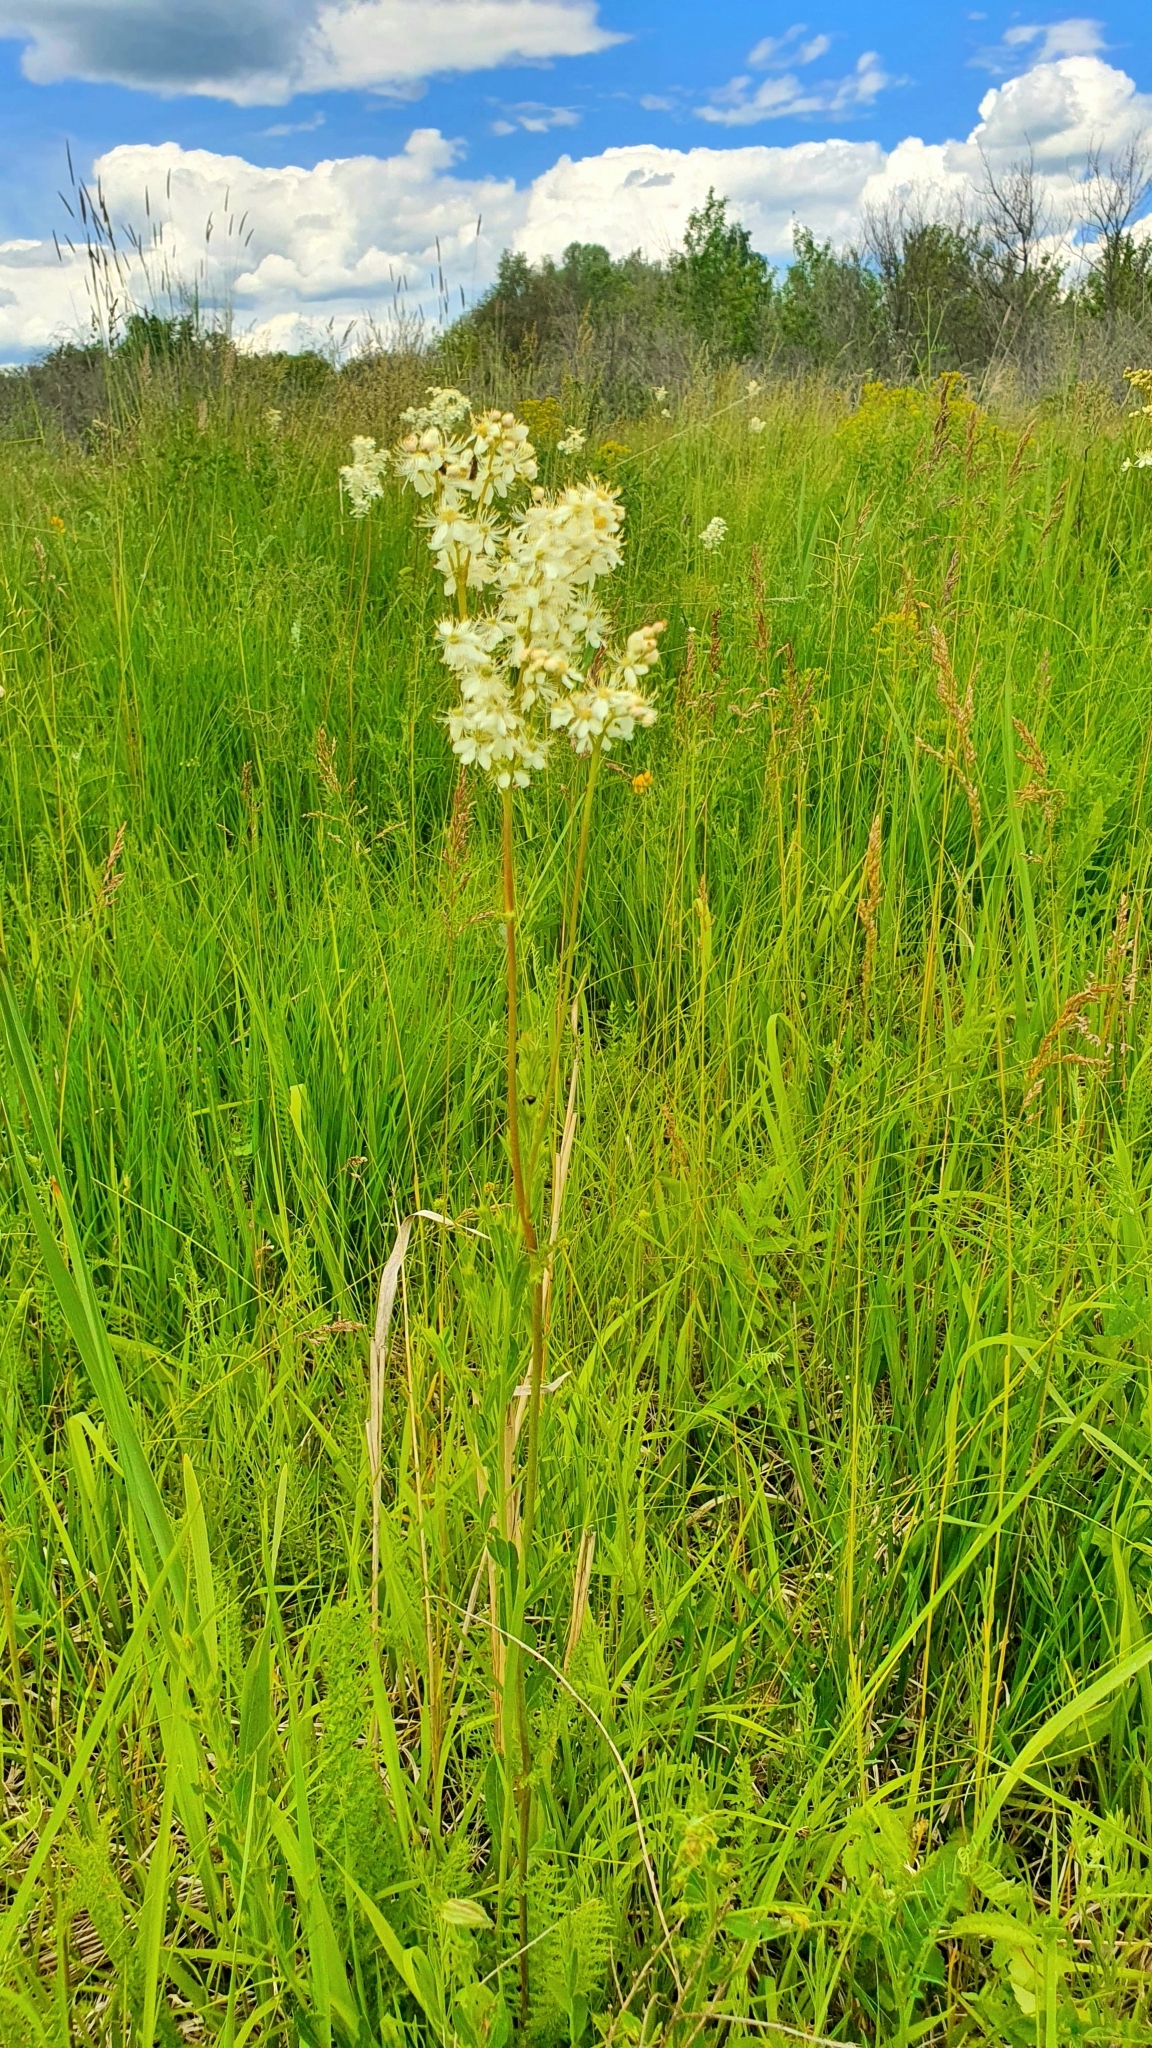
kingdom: Plantae
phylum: Tracheophyta
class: Magnoliopsida
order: Rosales
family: Rosaceae
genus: Filipendula
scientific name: Filipendula vulgaris
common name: Dropwort
